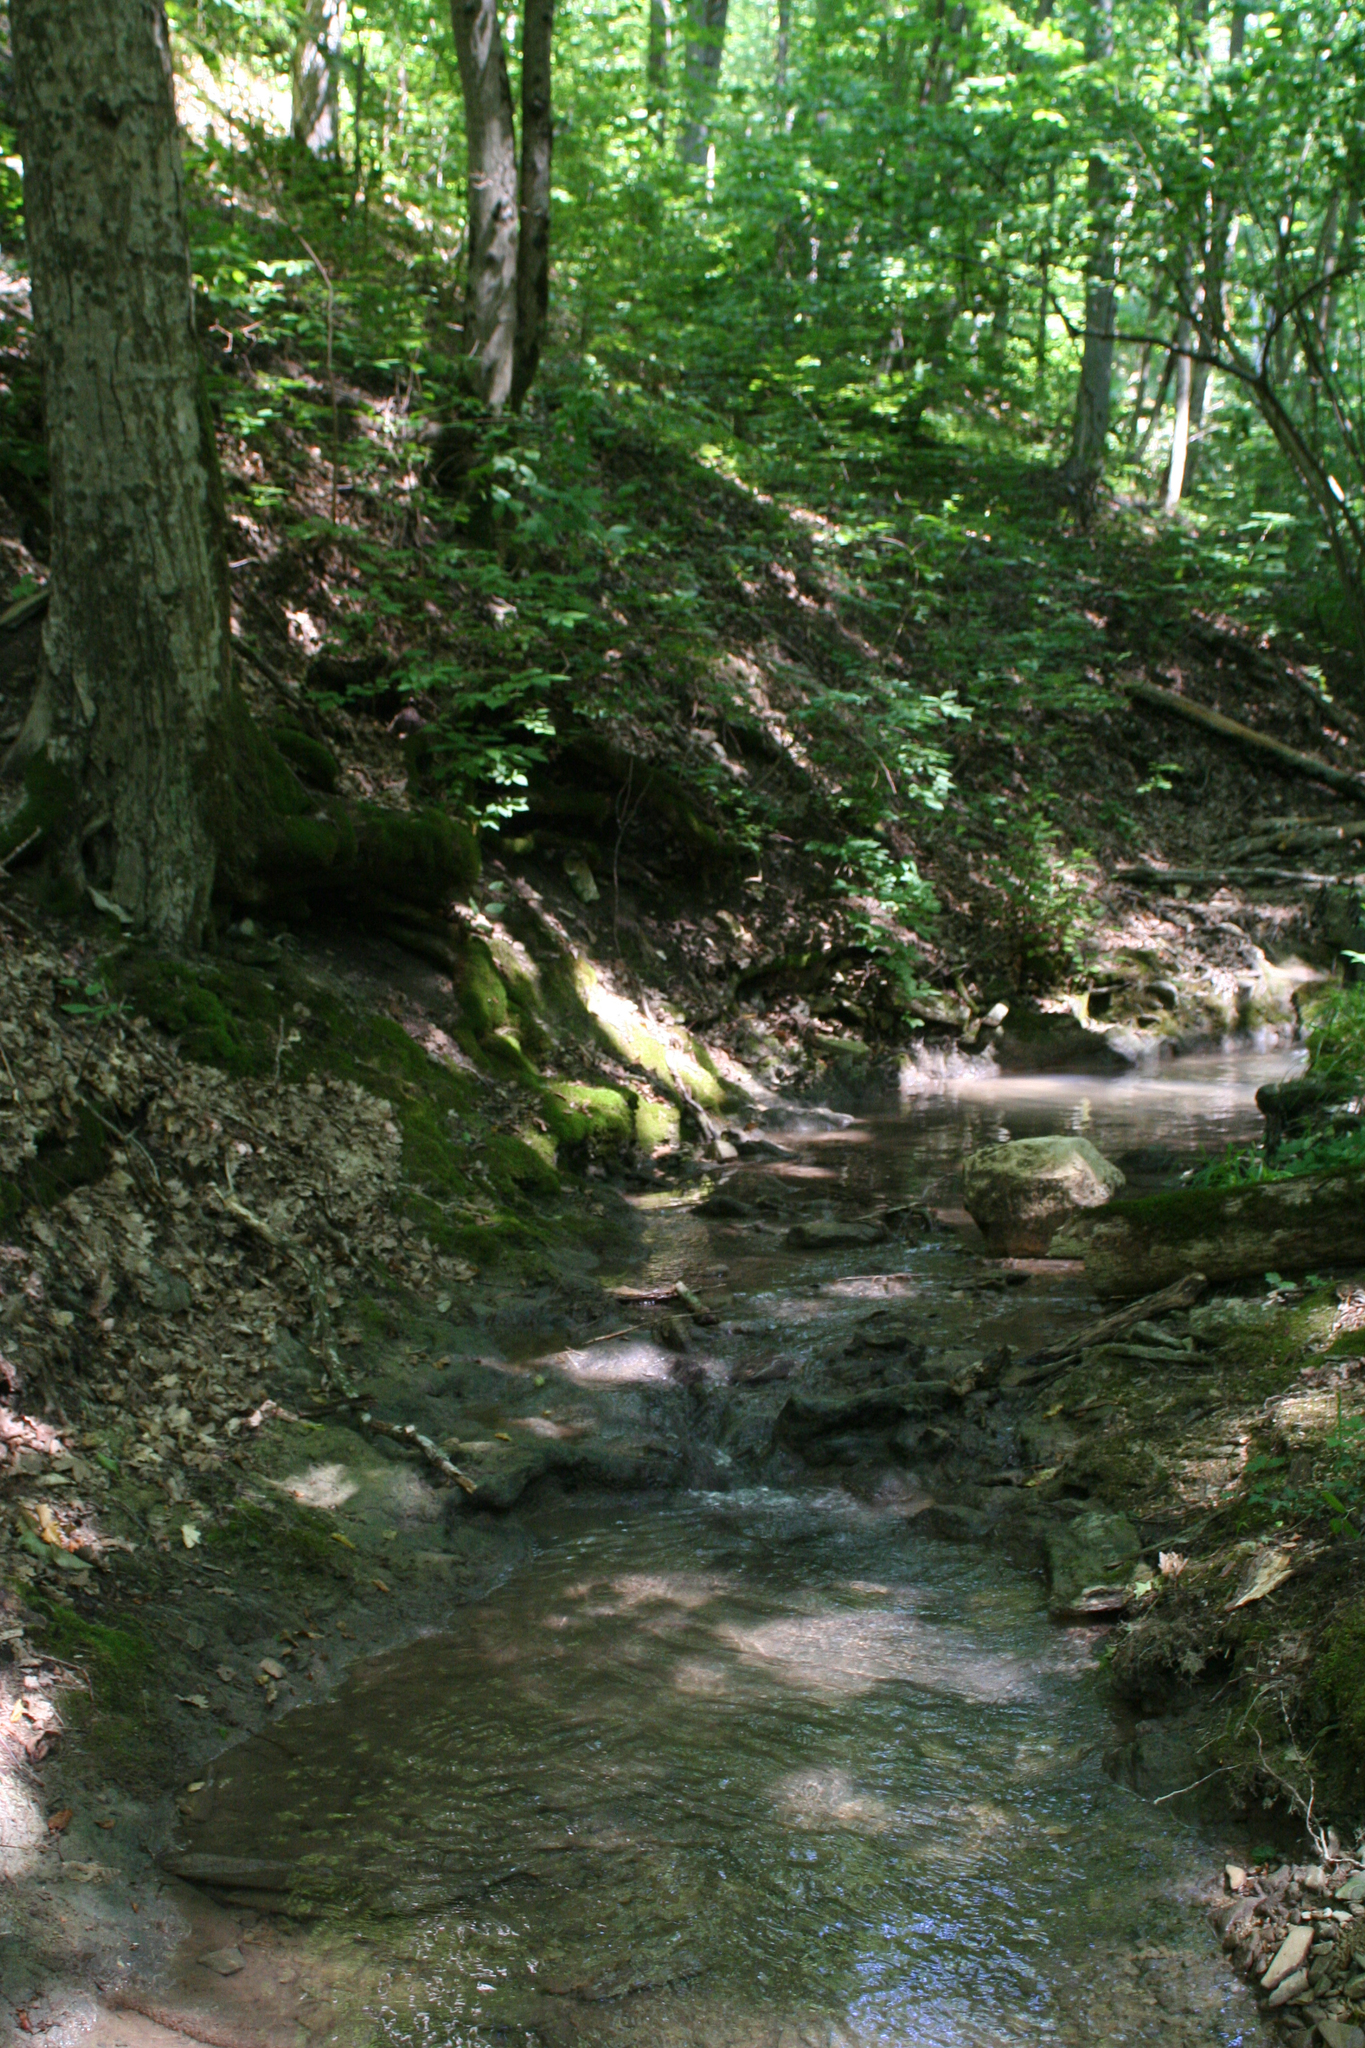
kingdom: Plantae
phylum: Tracheophyta
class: Magnoliopsida
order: Fagales
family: Fagaceae
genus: Fagus
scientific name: Fagus orientalis
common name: Oriental beech
